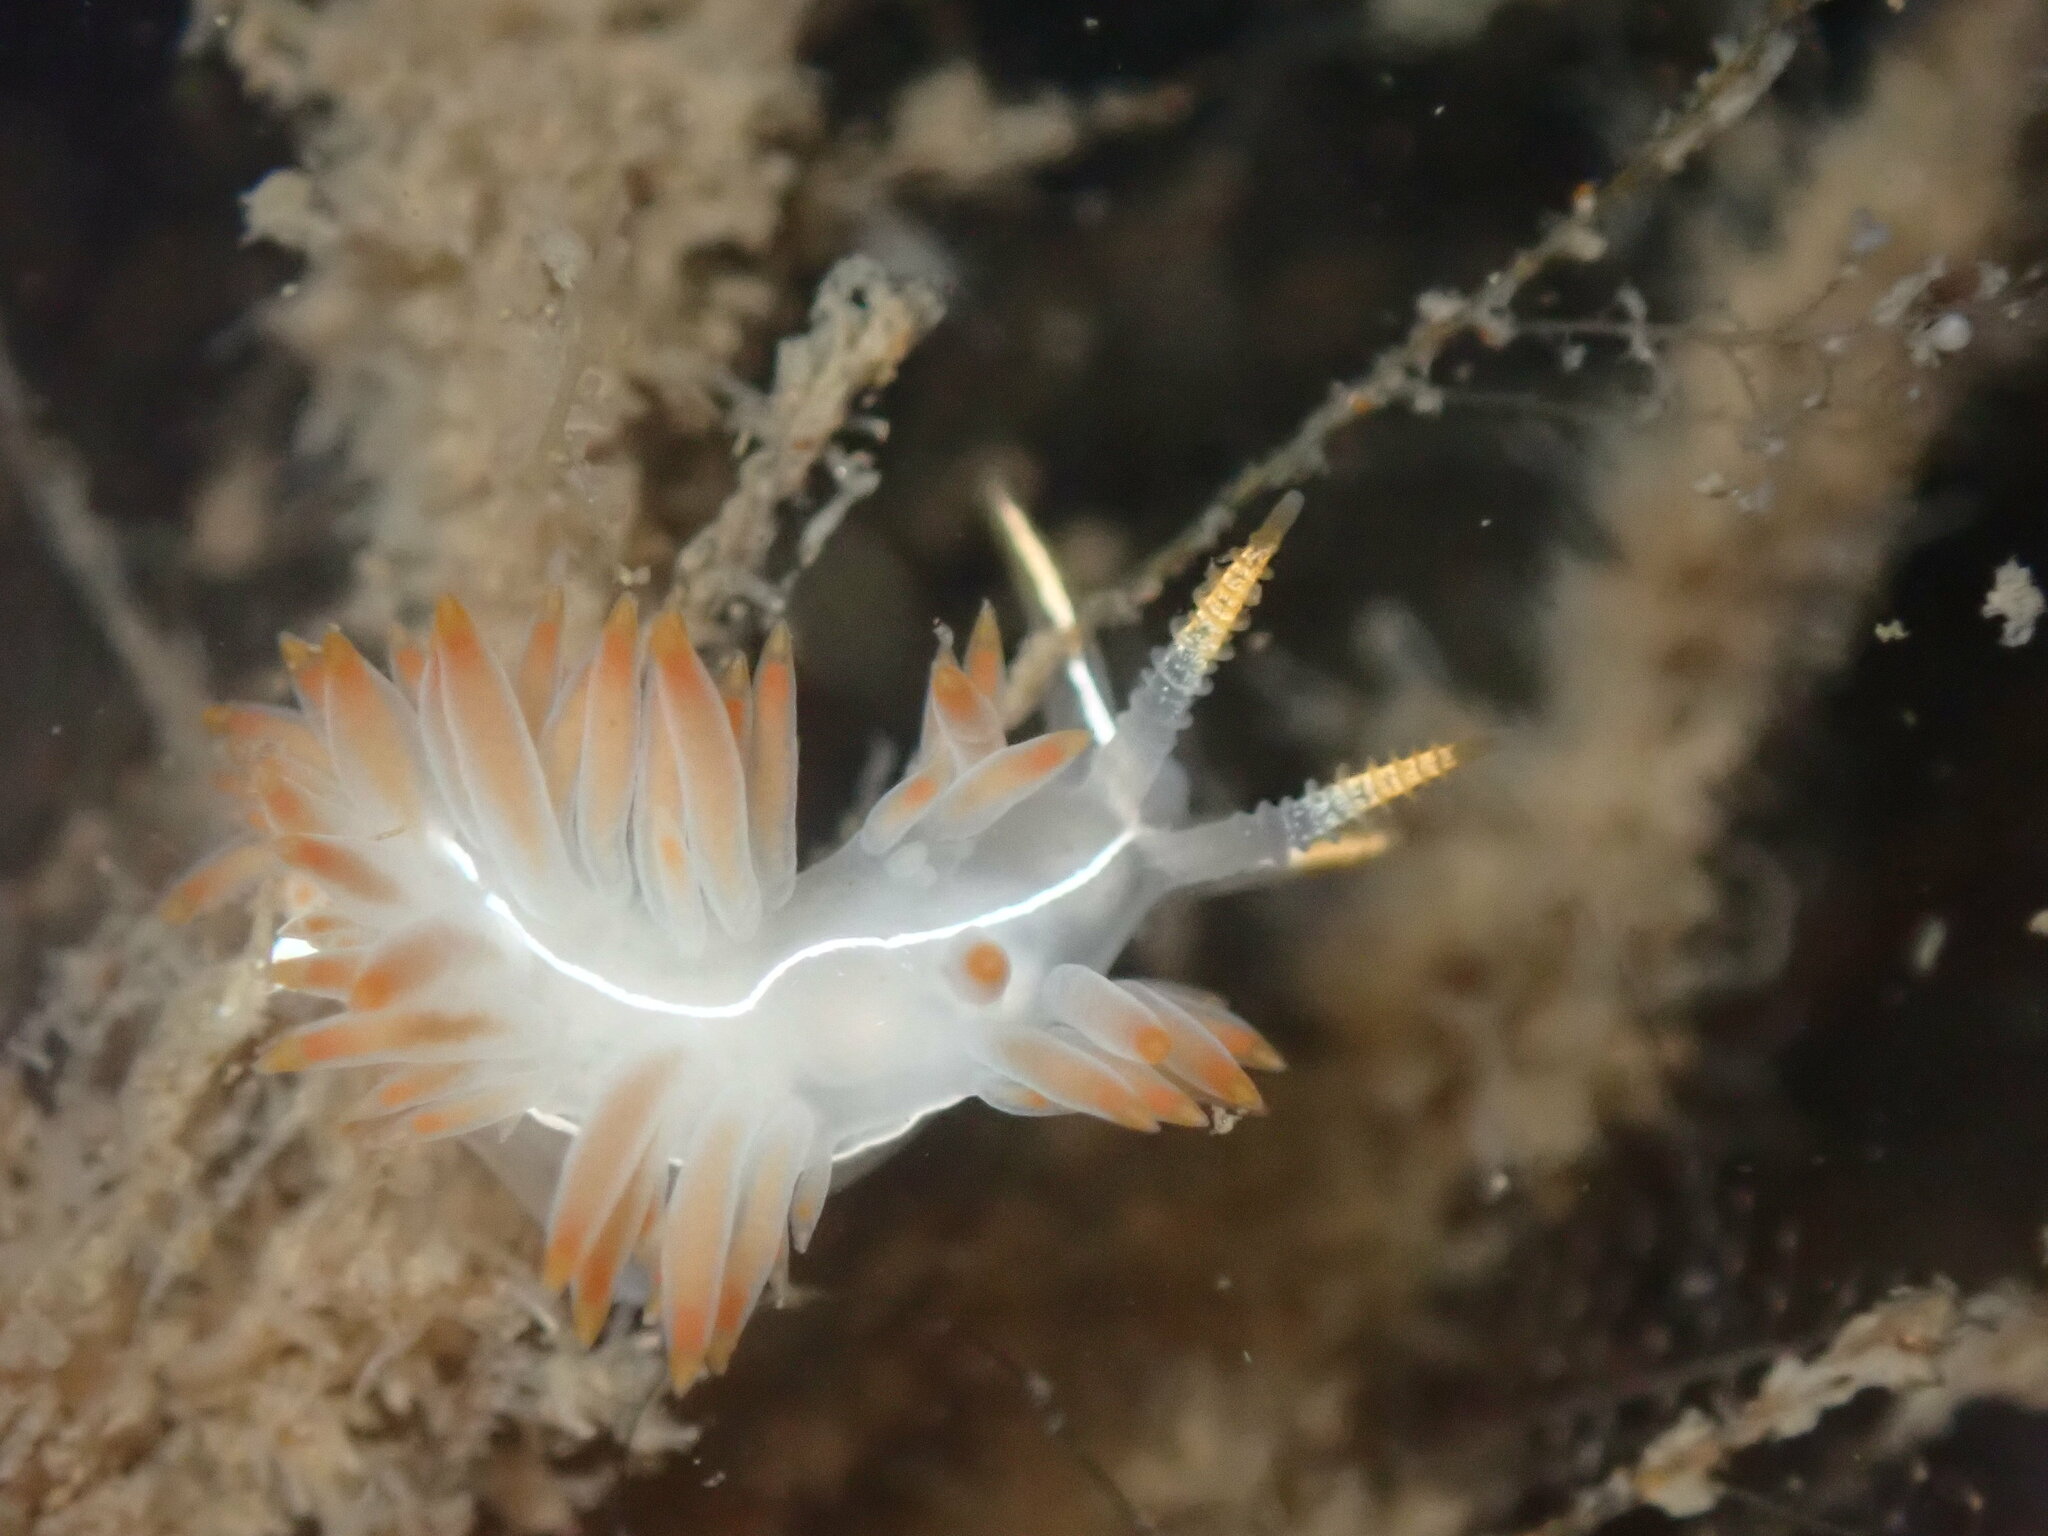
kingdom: Animalia
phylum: Mollusca
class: Gastropoda
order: Nudibranchia
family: Coryphellidae
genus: Coryphella
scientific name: Coryphella trilineata
